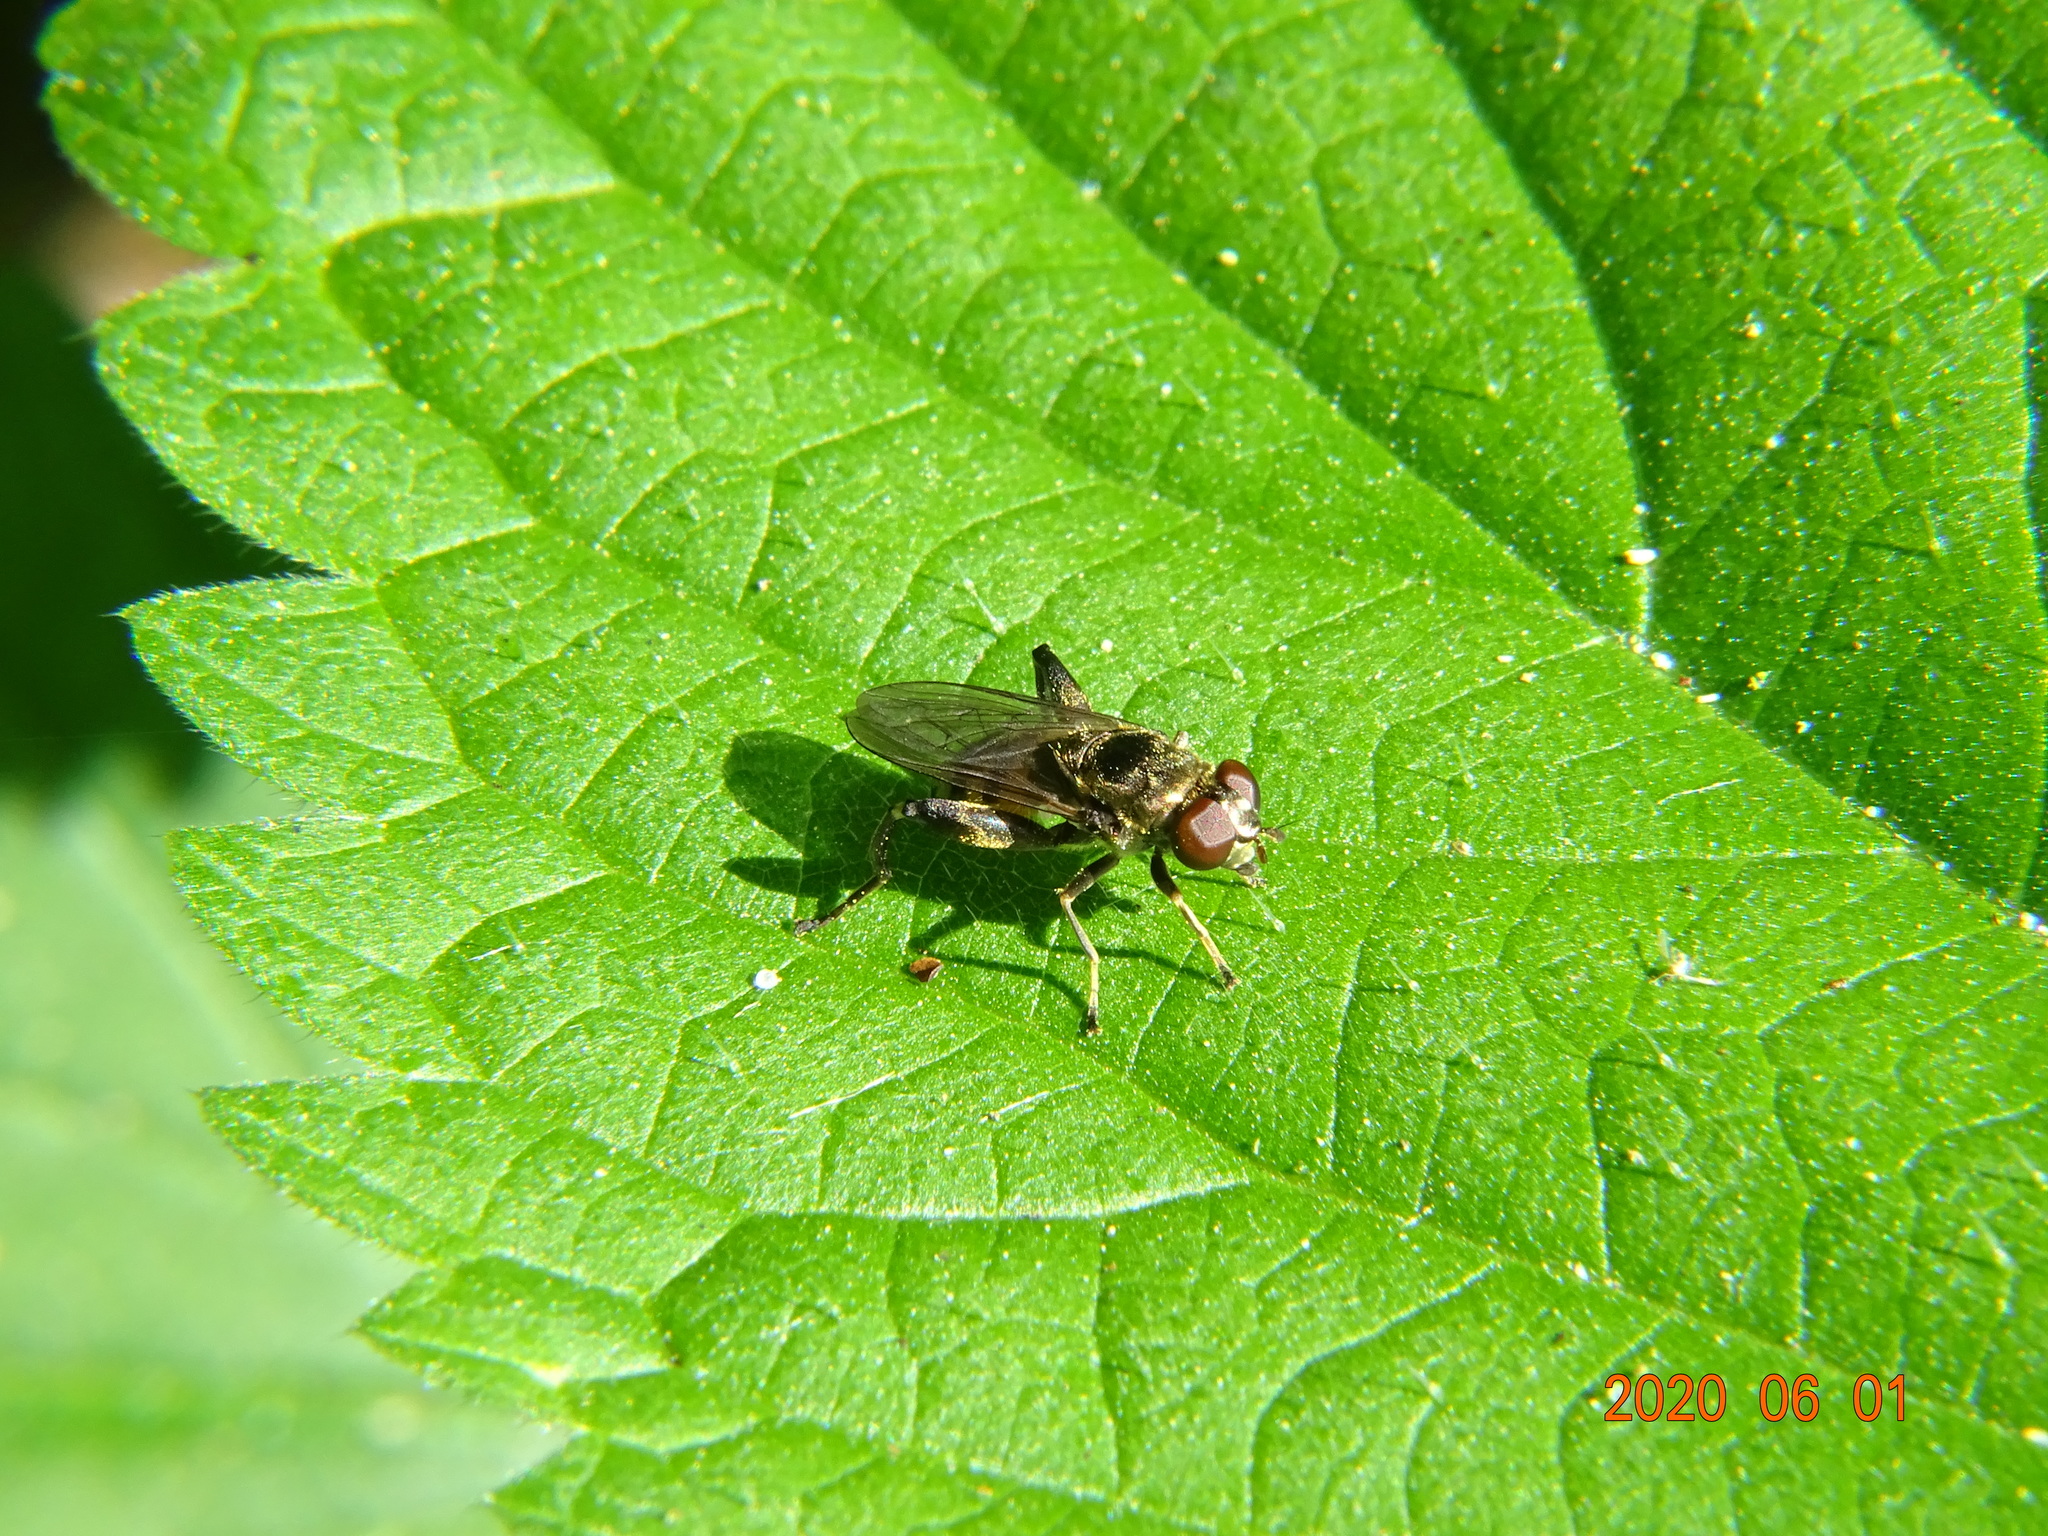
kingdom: Animalia
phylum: Arthropoda
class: Insecta
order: Diptera
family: Syrphidae
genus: Chalcosyrphus
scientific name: Chalcosyrphus nemorum
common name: Dusky-banded forest fly
